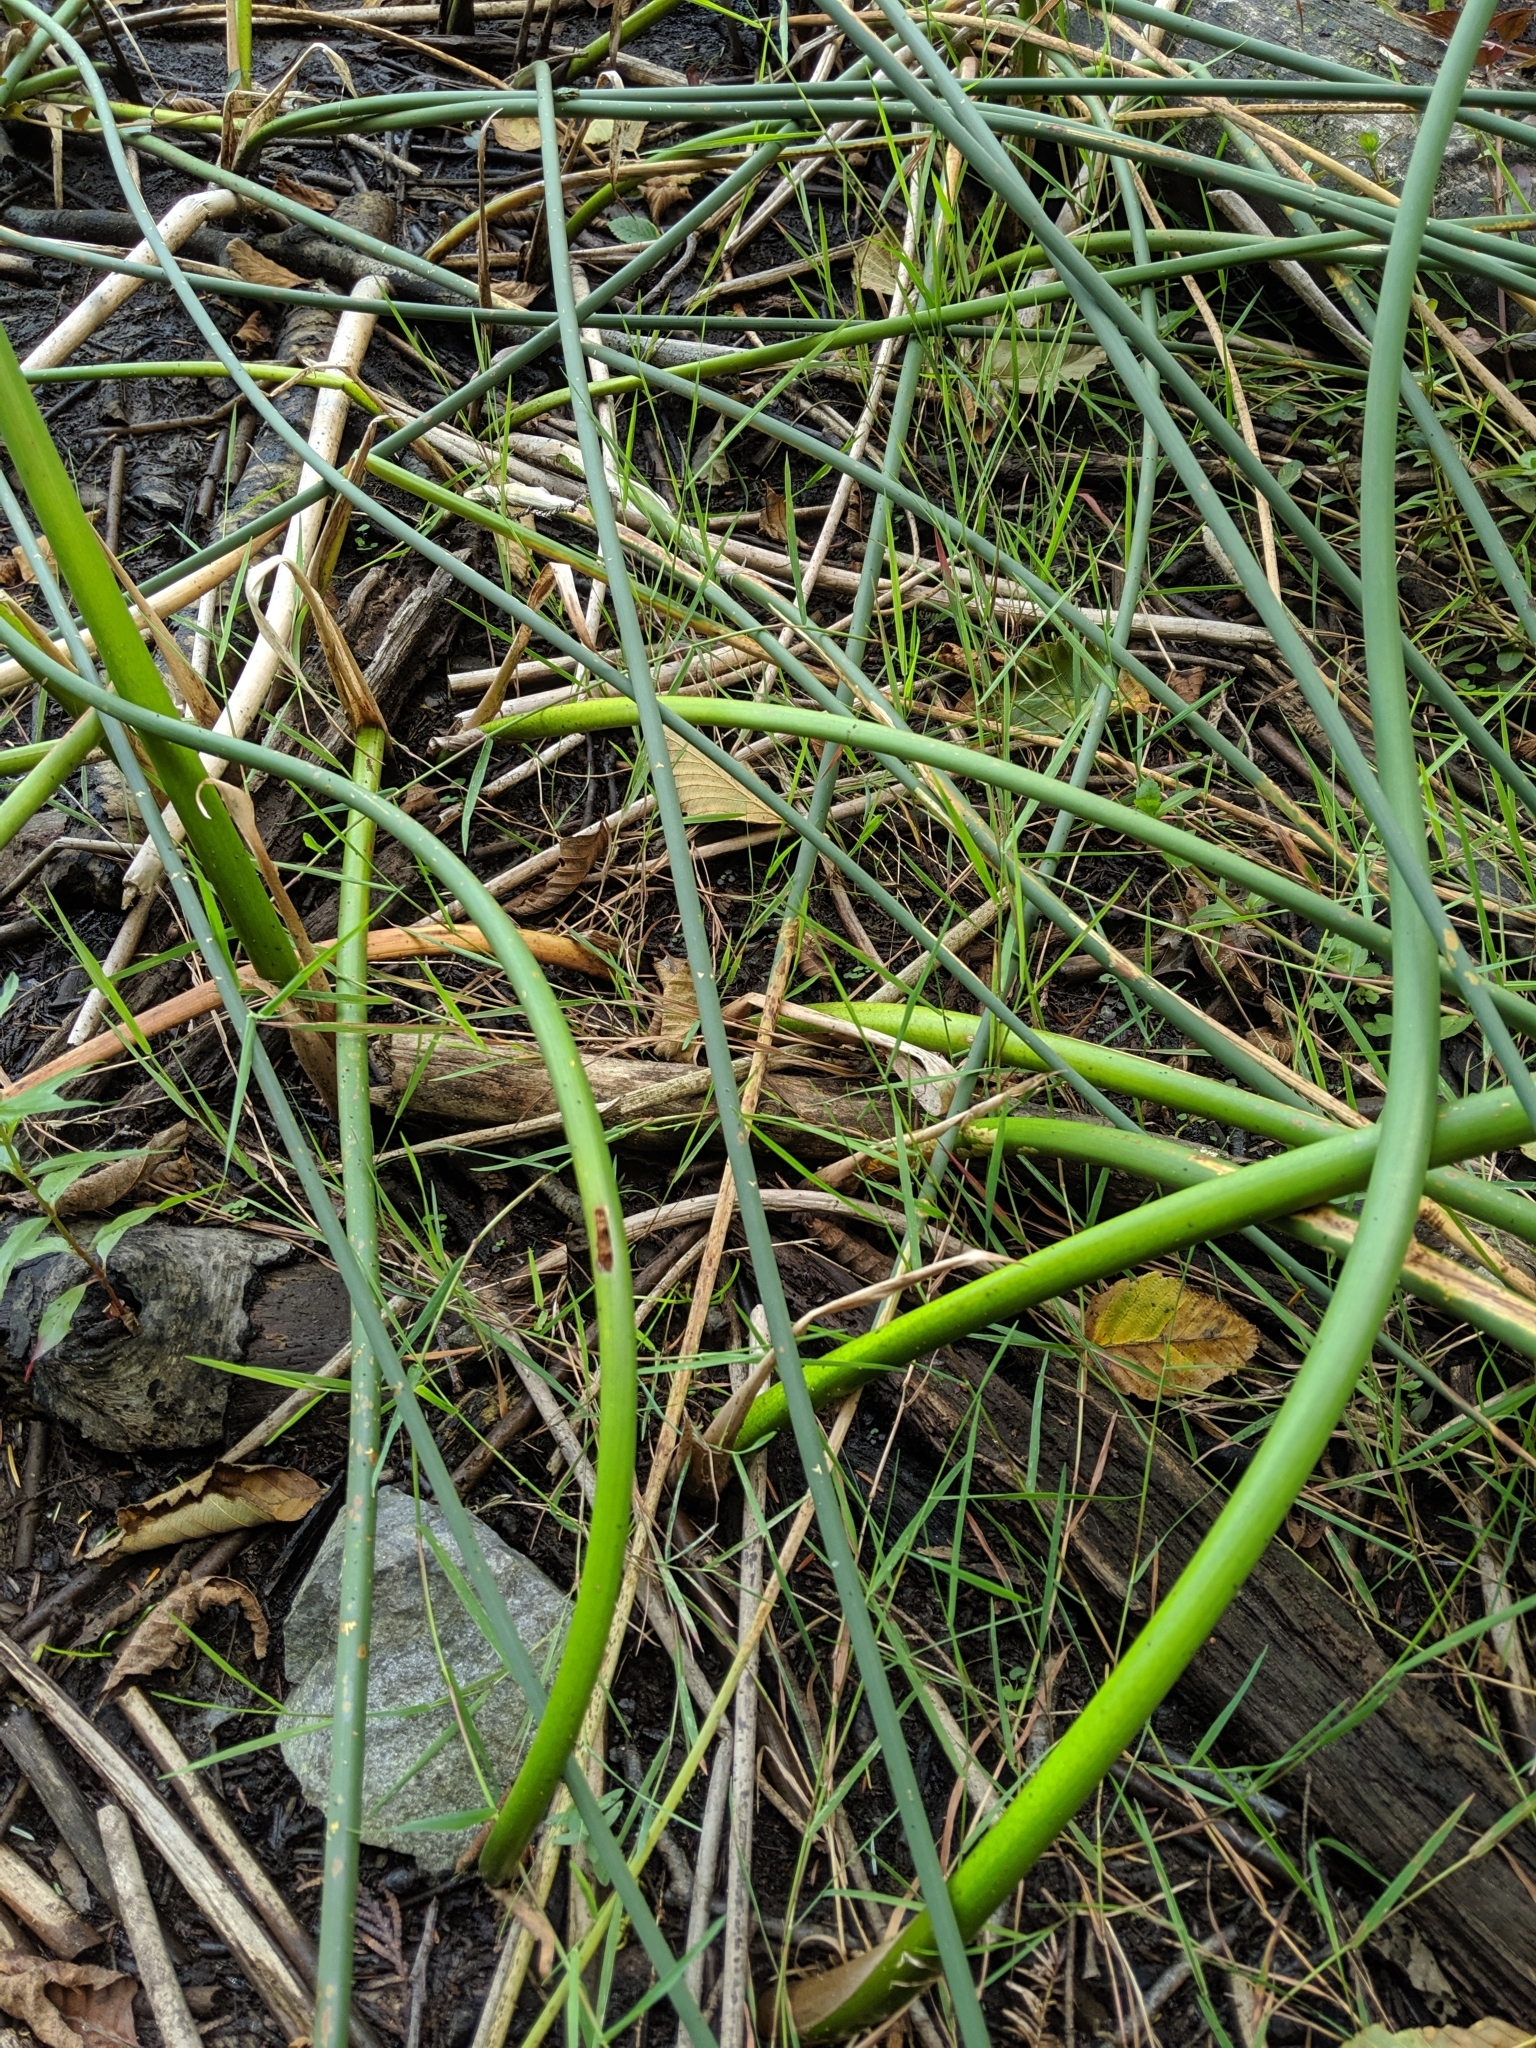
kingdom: Plantae
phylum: Tracheophyta
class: Liliopsida
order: Poales
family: Cyperaceae
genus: Schoenoplectus
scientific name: Schoenoplectus tabernaemontani
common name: Grey club-rush
